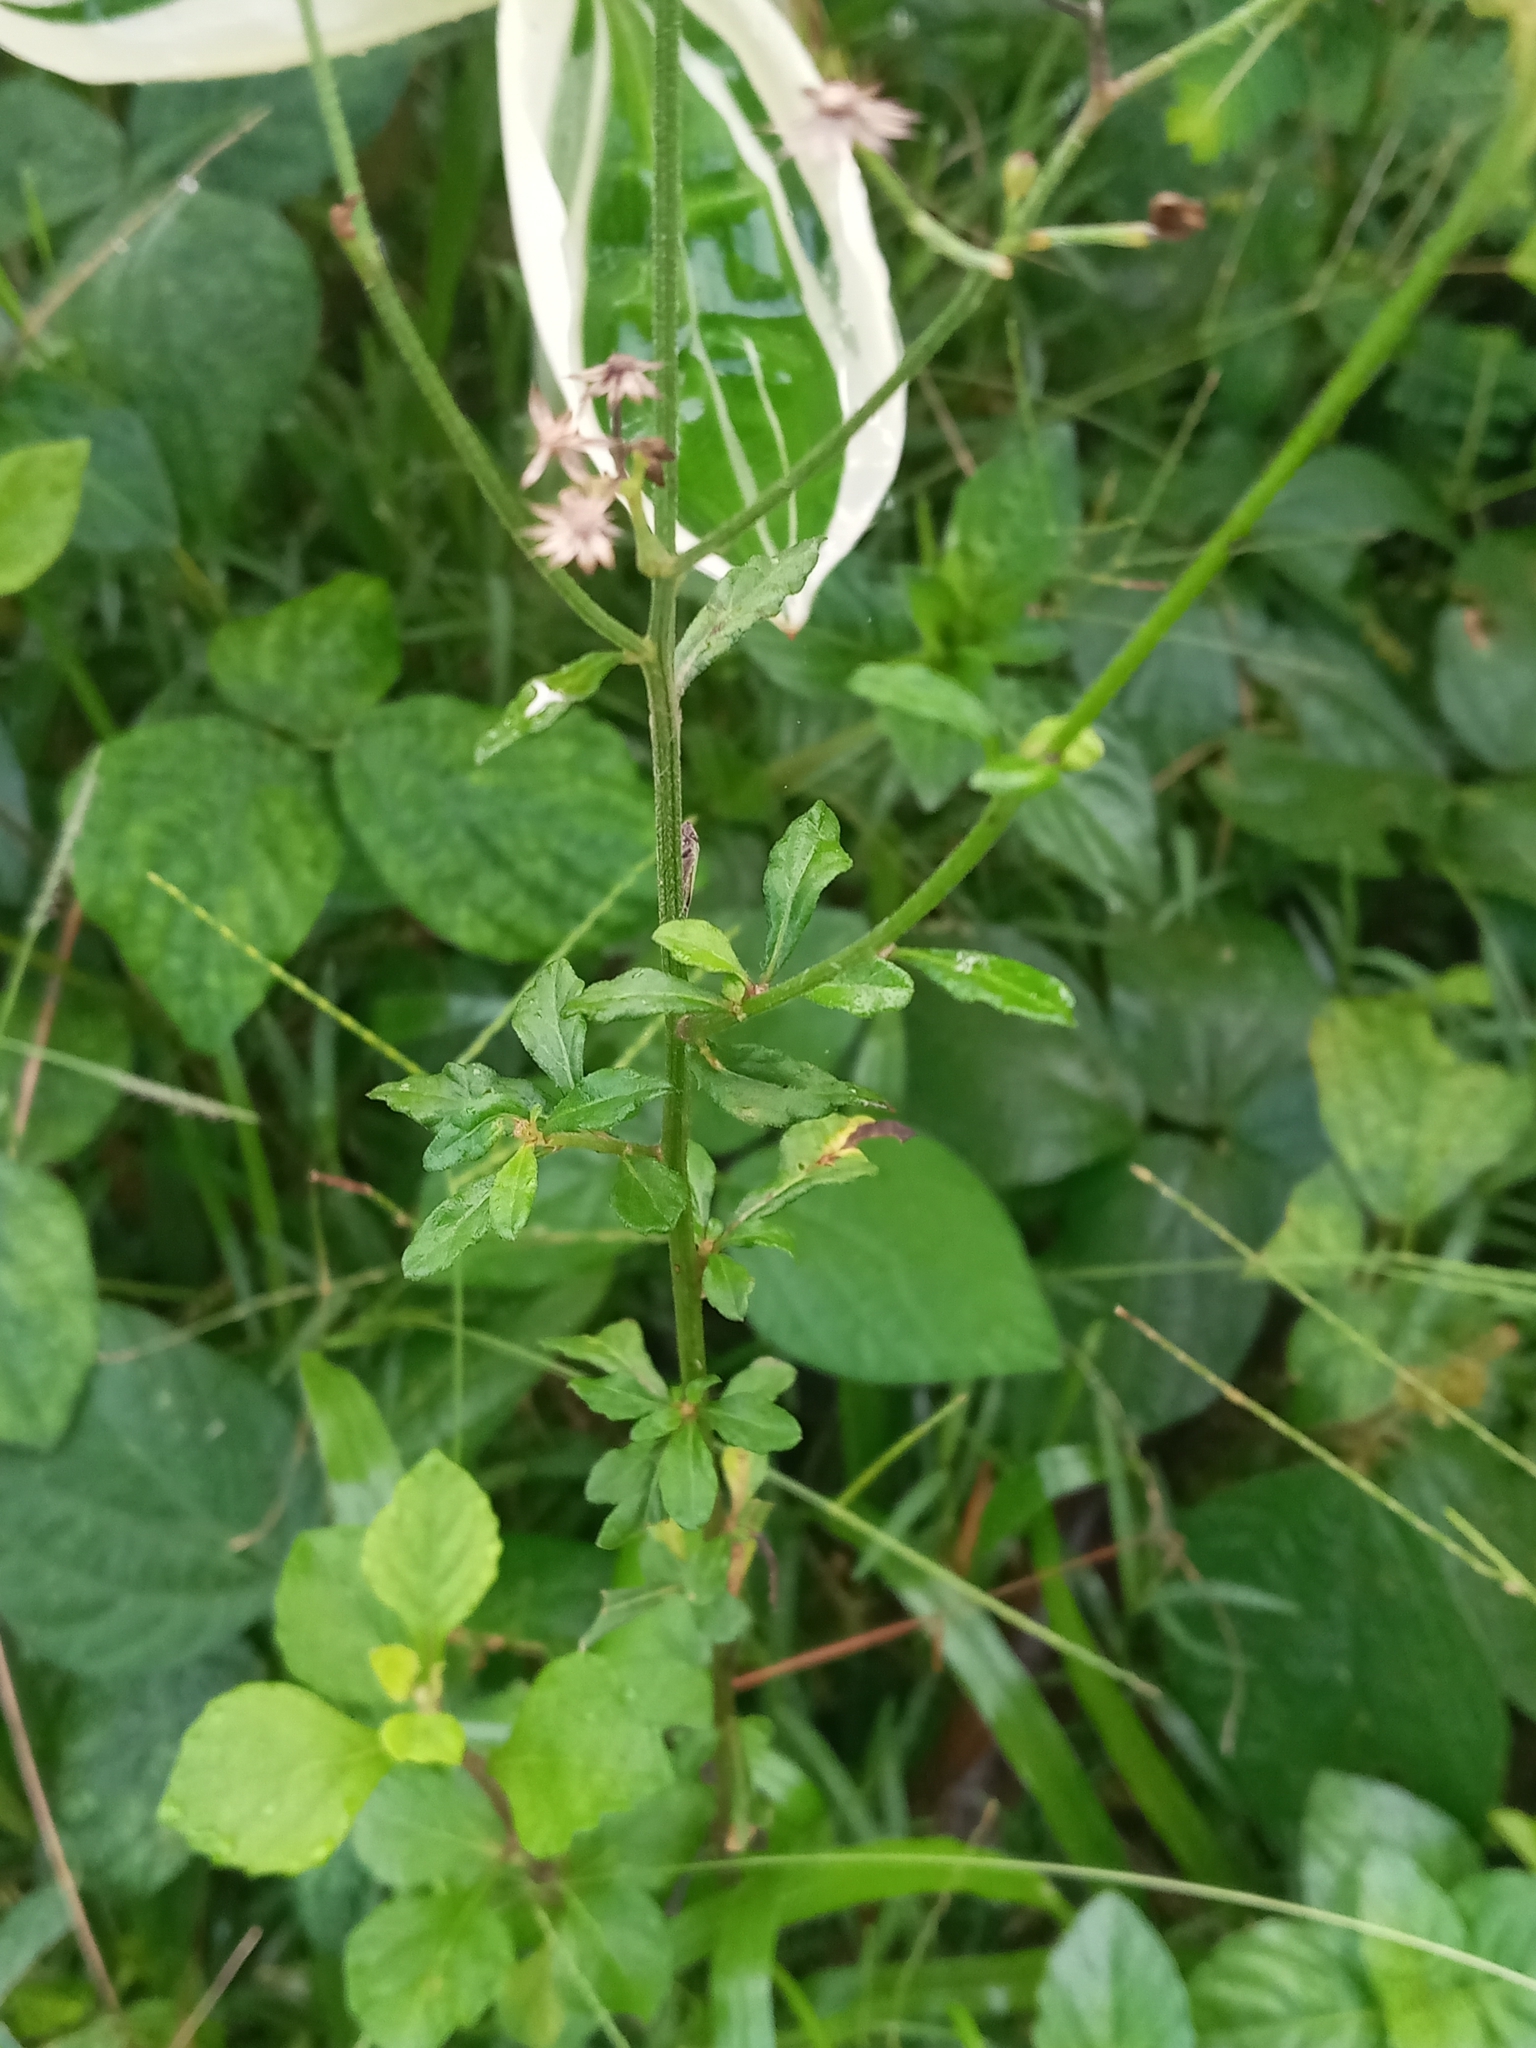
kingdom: Plantae
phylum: Tracheophyta
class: Magnoliopsida
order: Asterales
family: Asteraceae
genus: Cyanthillium
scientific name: Cyanthillium cinereum
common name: Little ironweed
